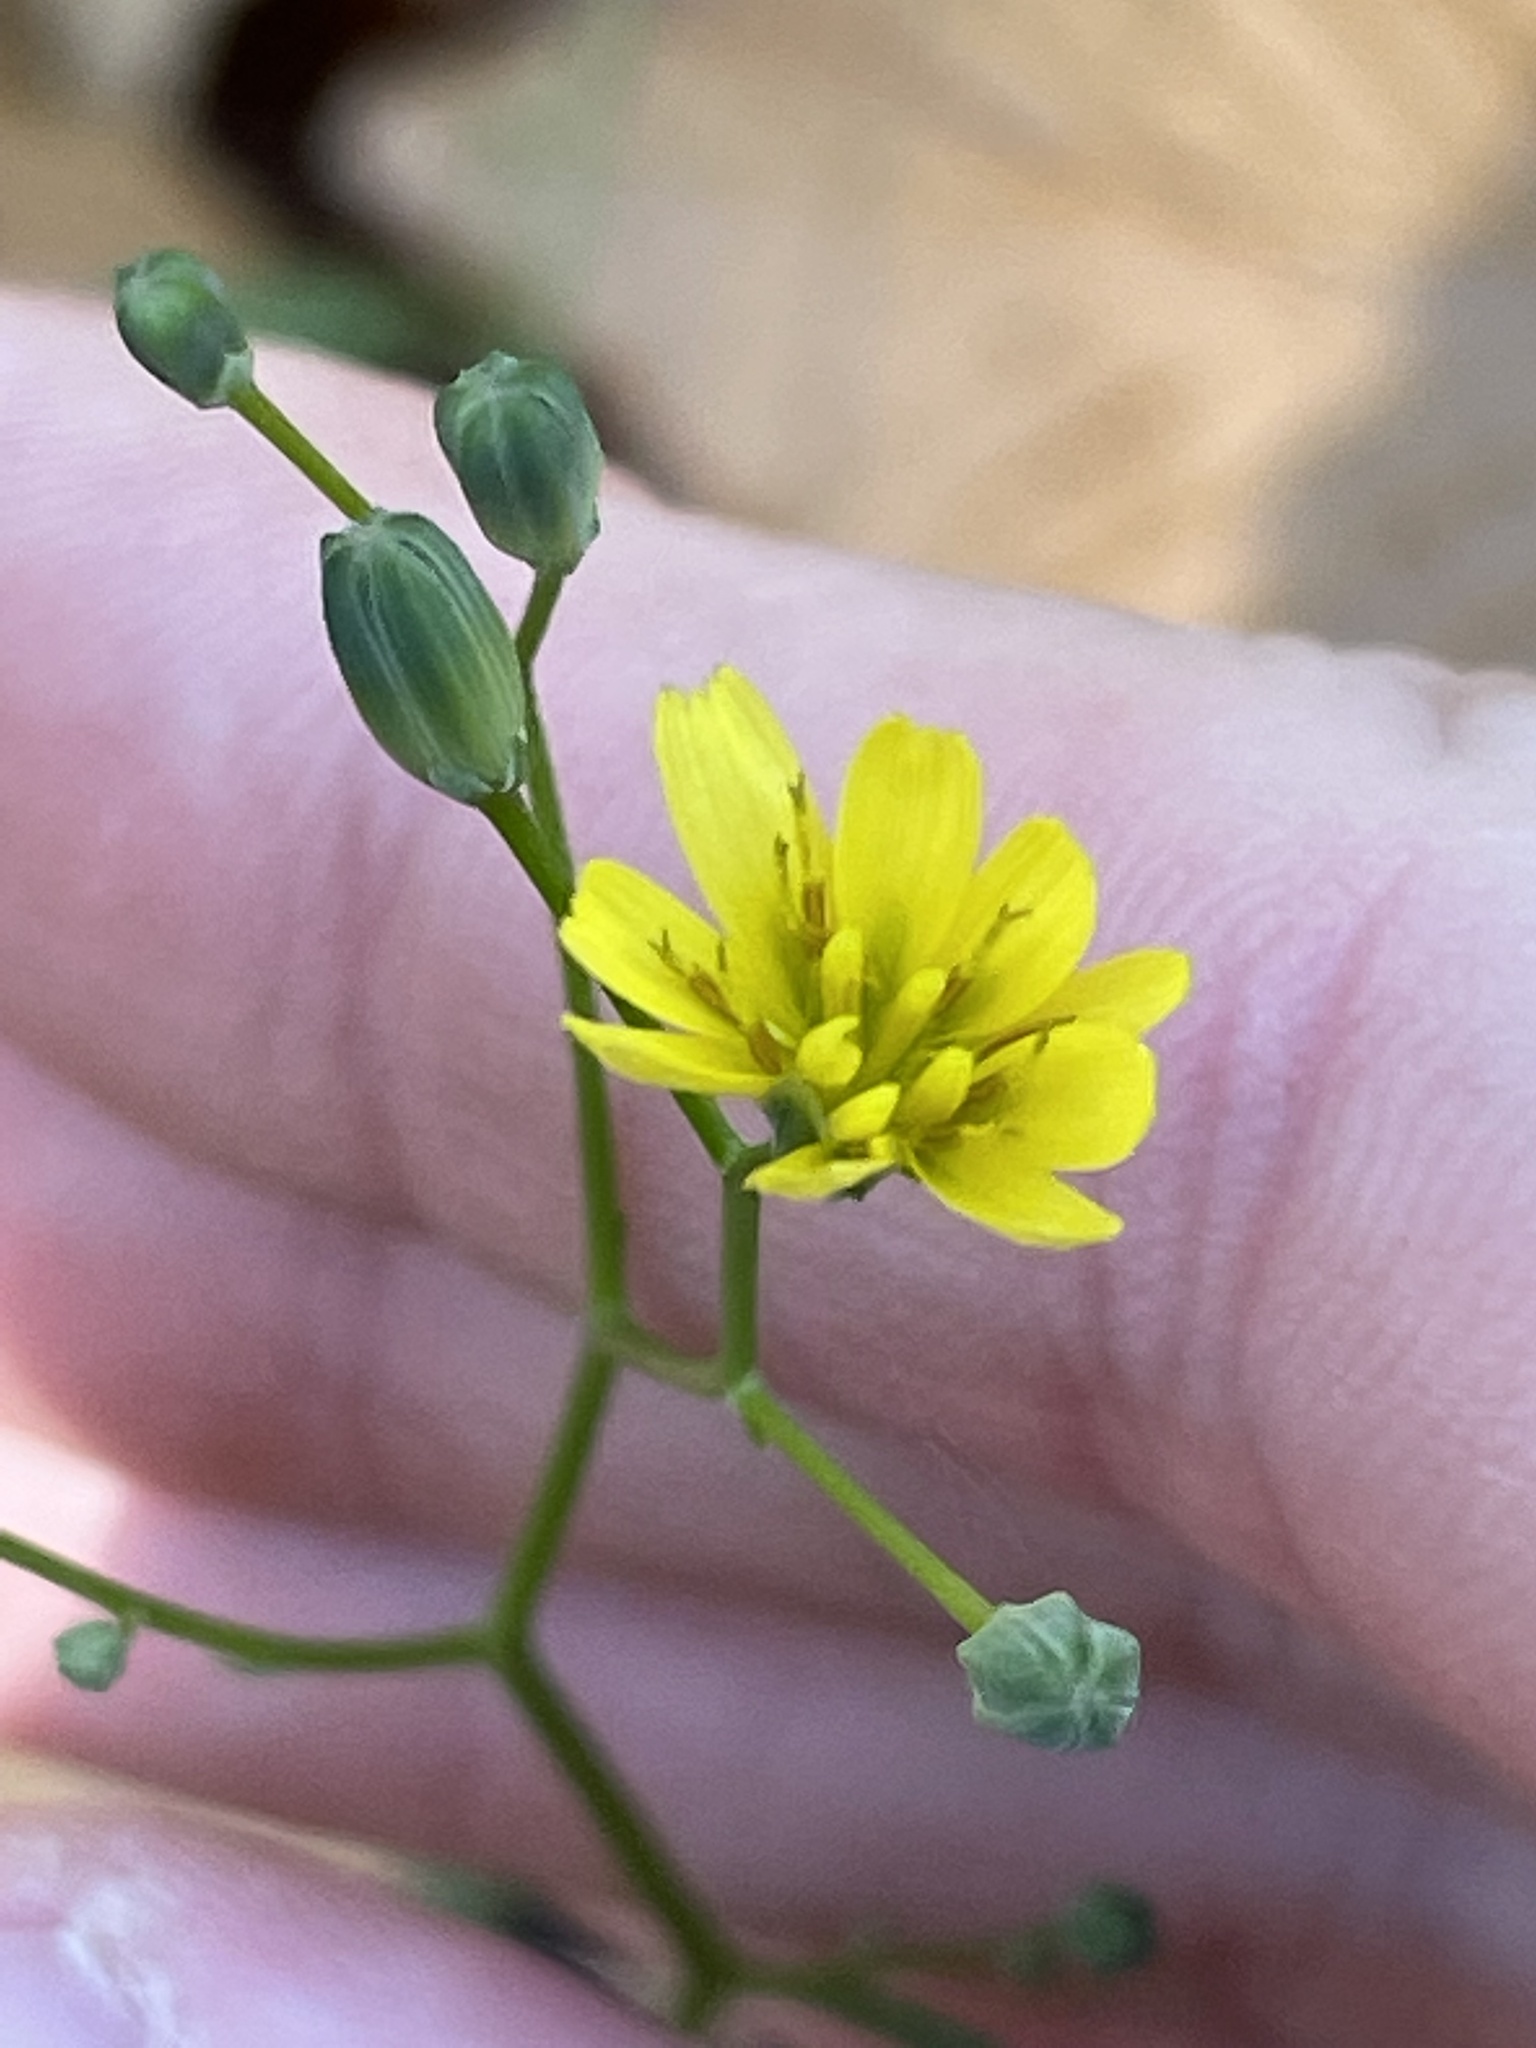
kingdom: Plantae
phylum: Tracheophyta
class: Magnoliopsida
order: Asterales
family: Asteraceae
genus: Lapsana
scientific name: Lapsana communis
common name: Nipplewort
